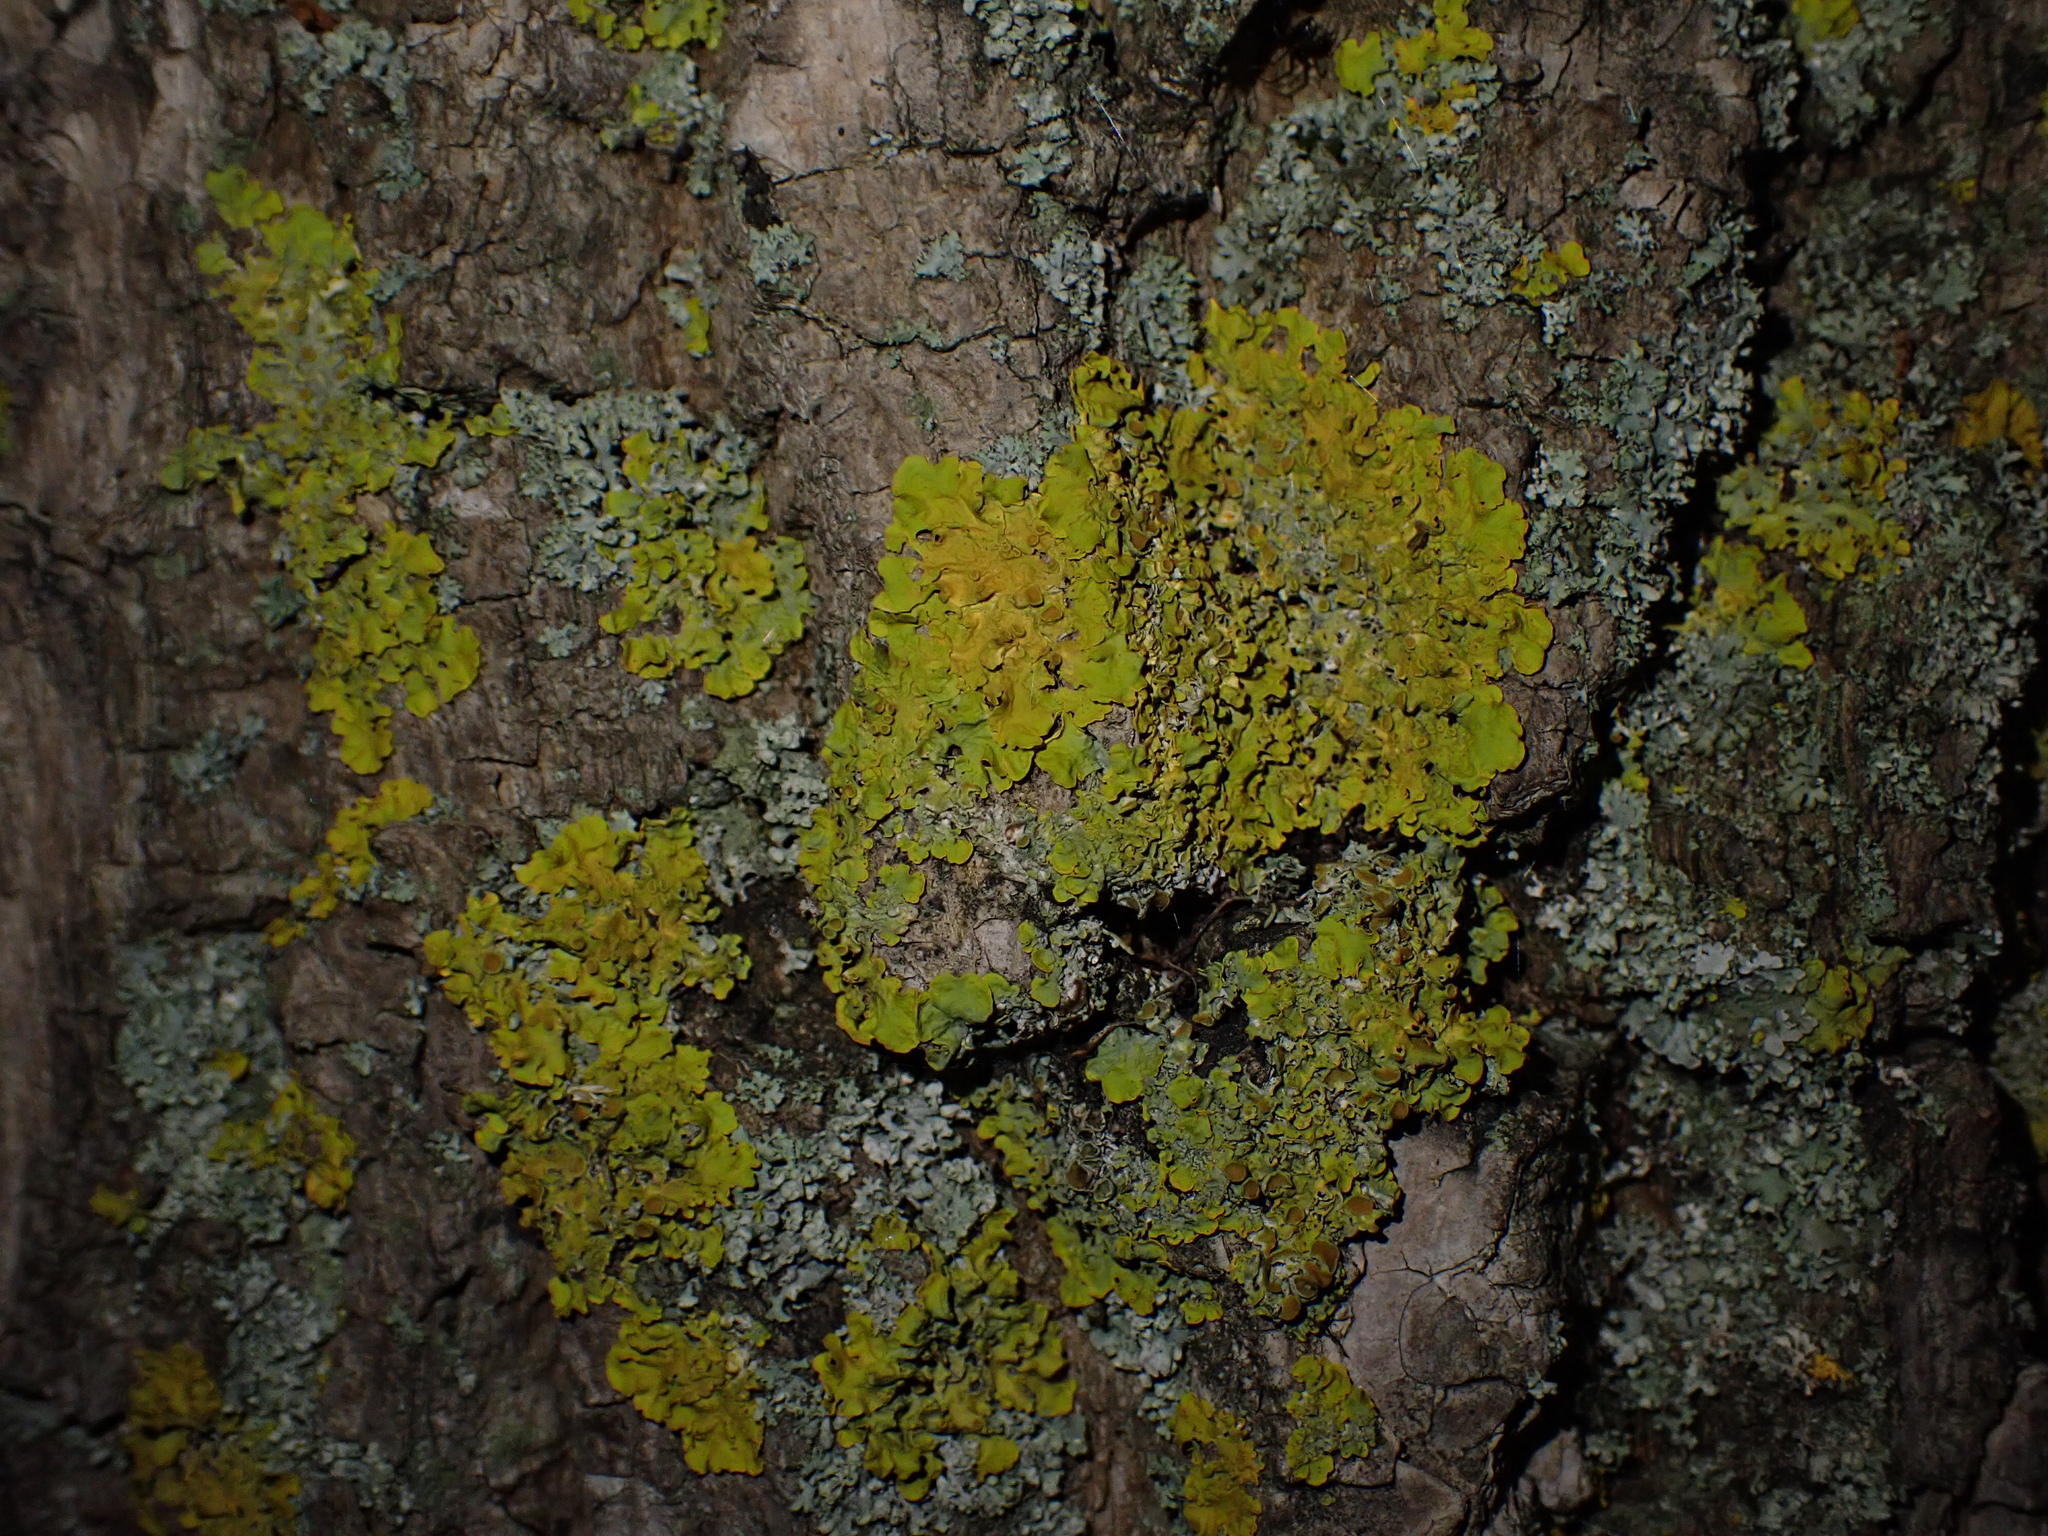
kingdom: Fungi
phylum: Ascomycota
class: Lecanoromycetes
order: Teloschistales
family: Teloschistaceae
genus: Xanthoria
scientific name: Xanthoria parietina
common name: Common orange lichen
